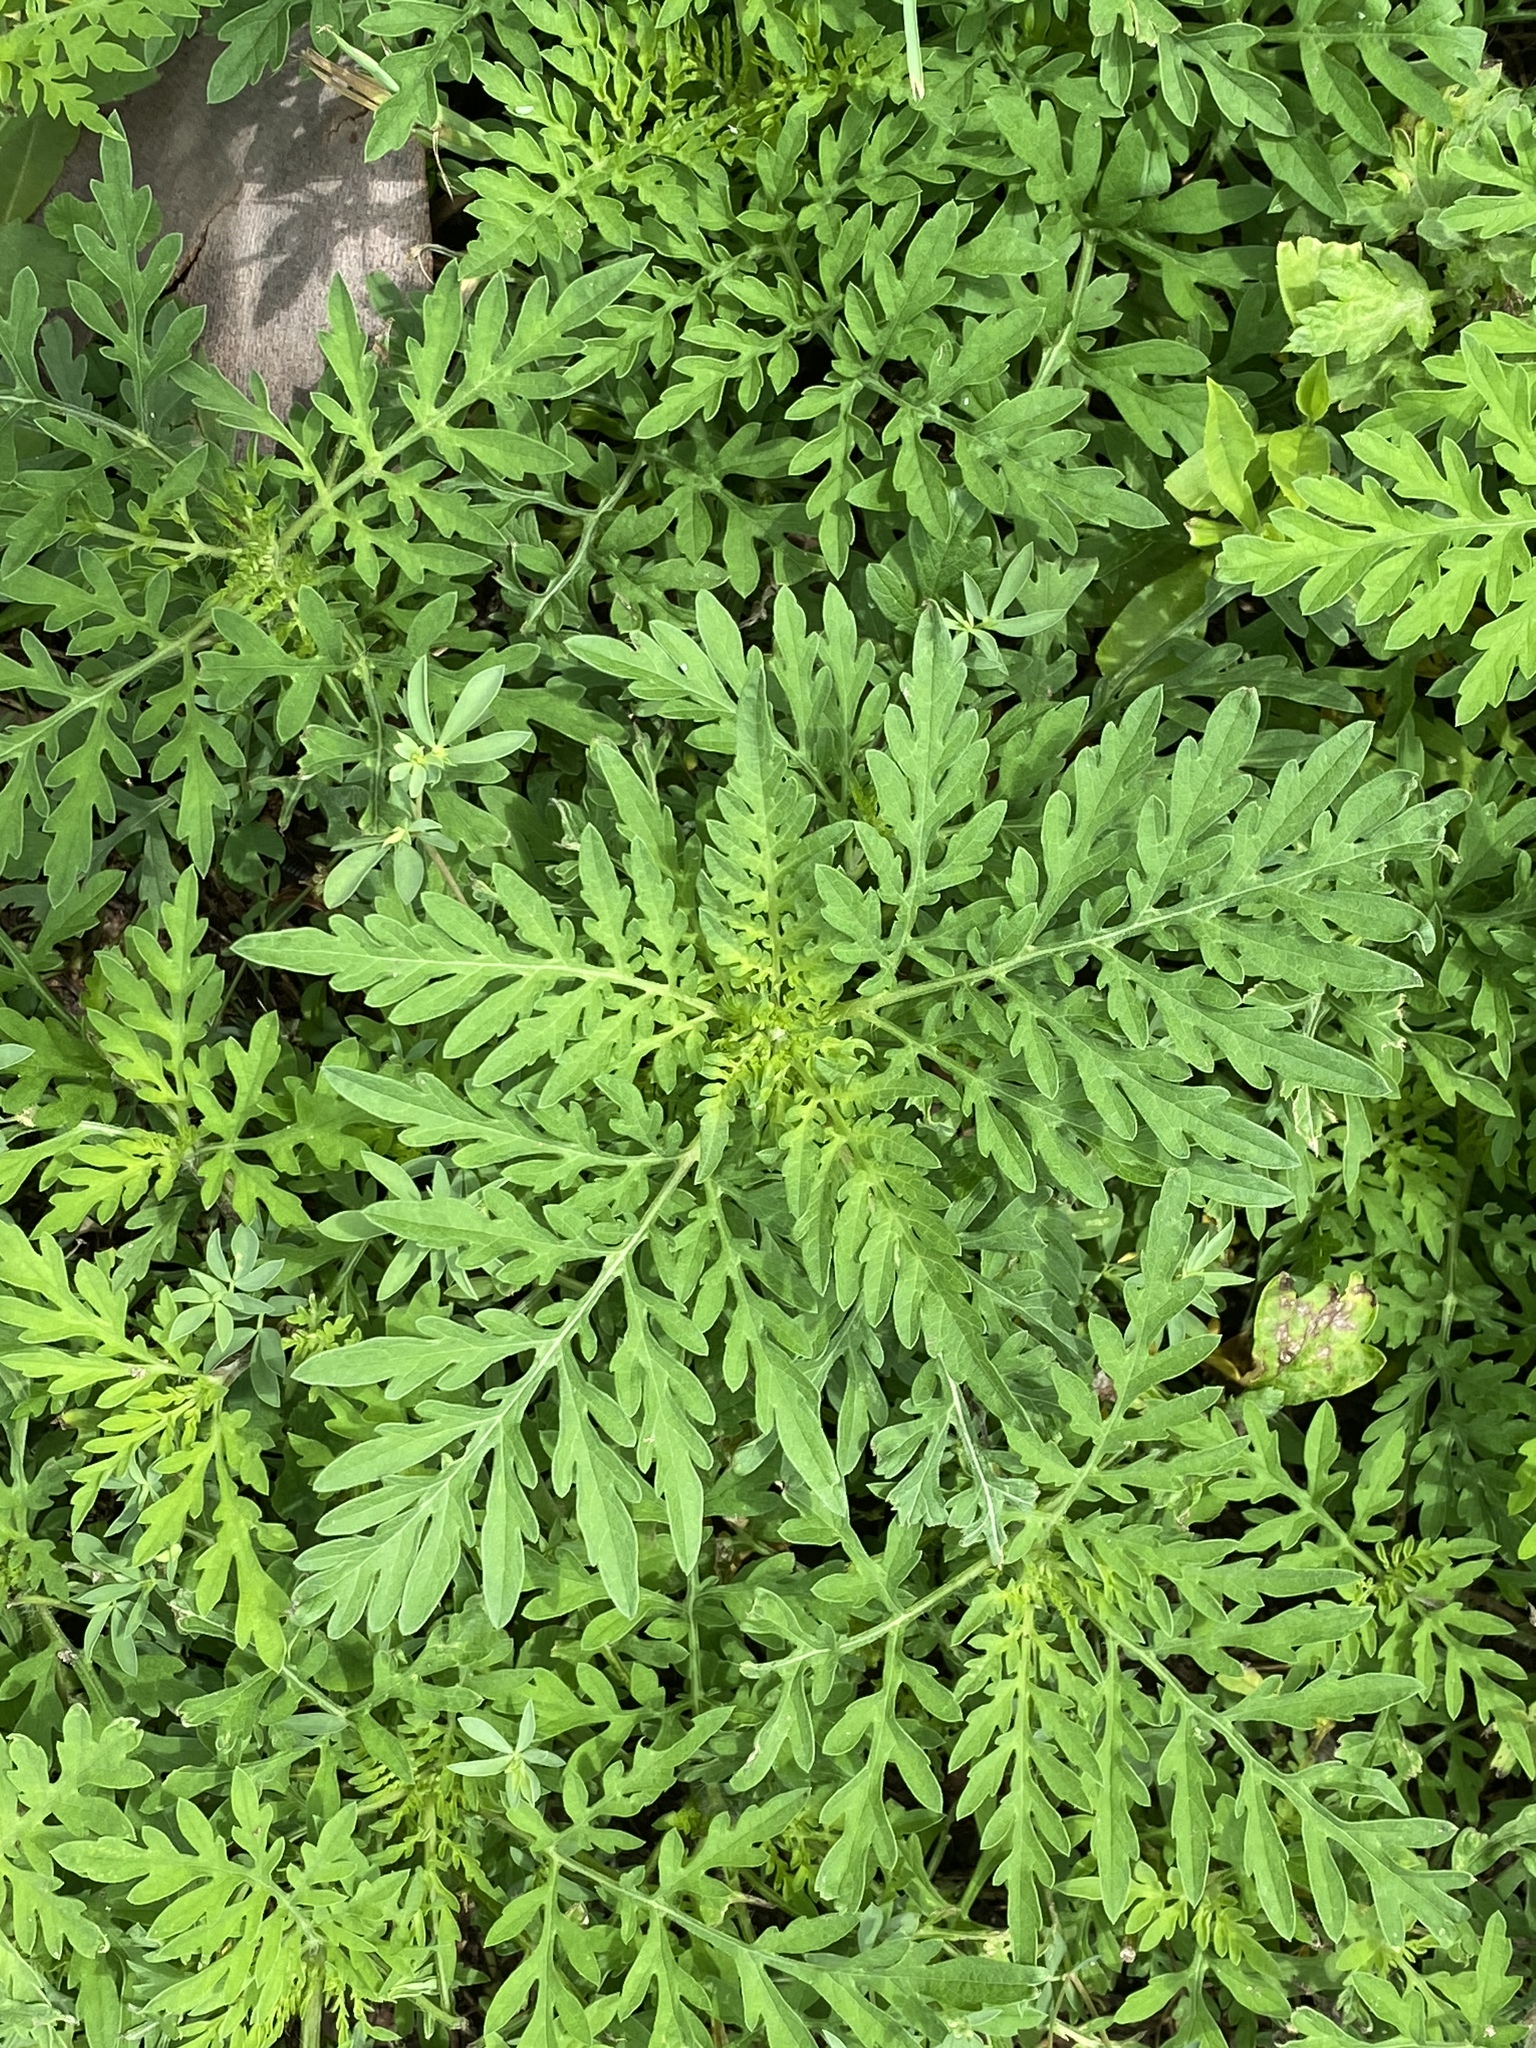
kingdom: Plantae
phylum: Tracheophyta
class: Magnoliopsida
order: Asterales
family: Asteraceae
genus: Ambrosia
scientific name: Ambrosia artemisiifolia
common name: Annual ragweed
